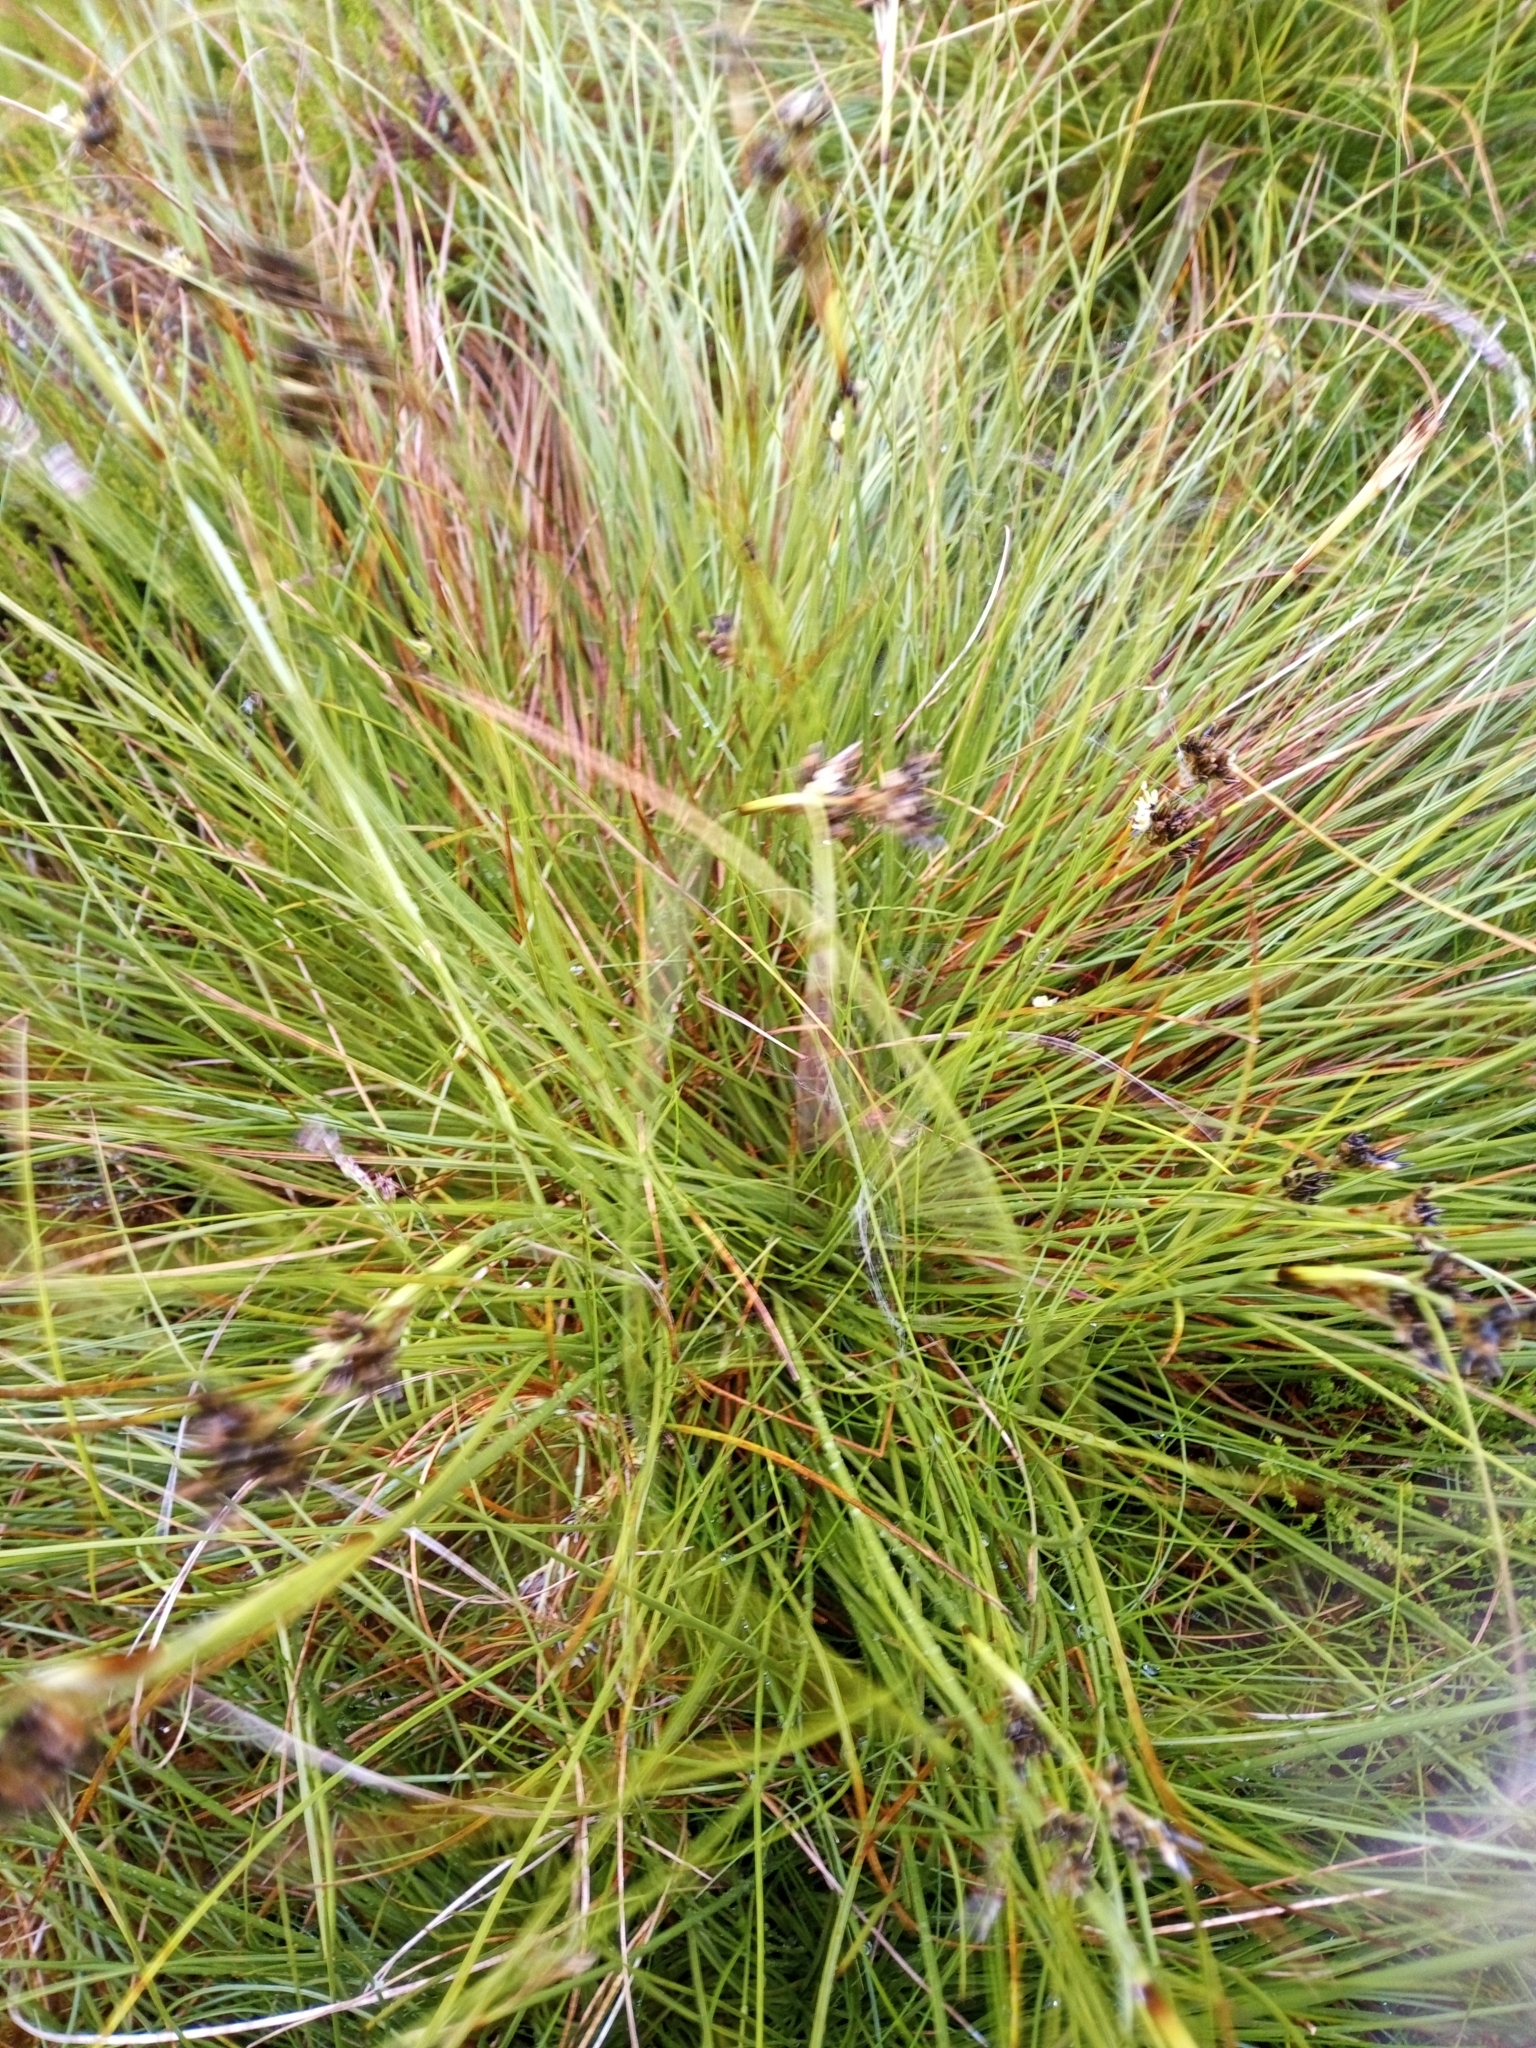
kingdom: Plantae
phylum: Tracheophyta
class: Liliopsida
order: Poales
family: Juncaceae
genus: Juncus
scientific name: Juncus squarrosus
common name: Heath rush
